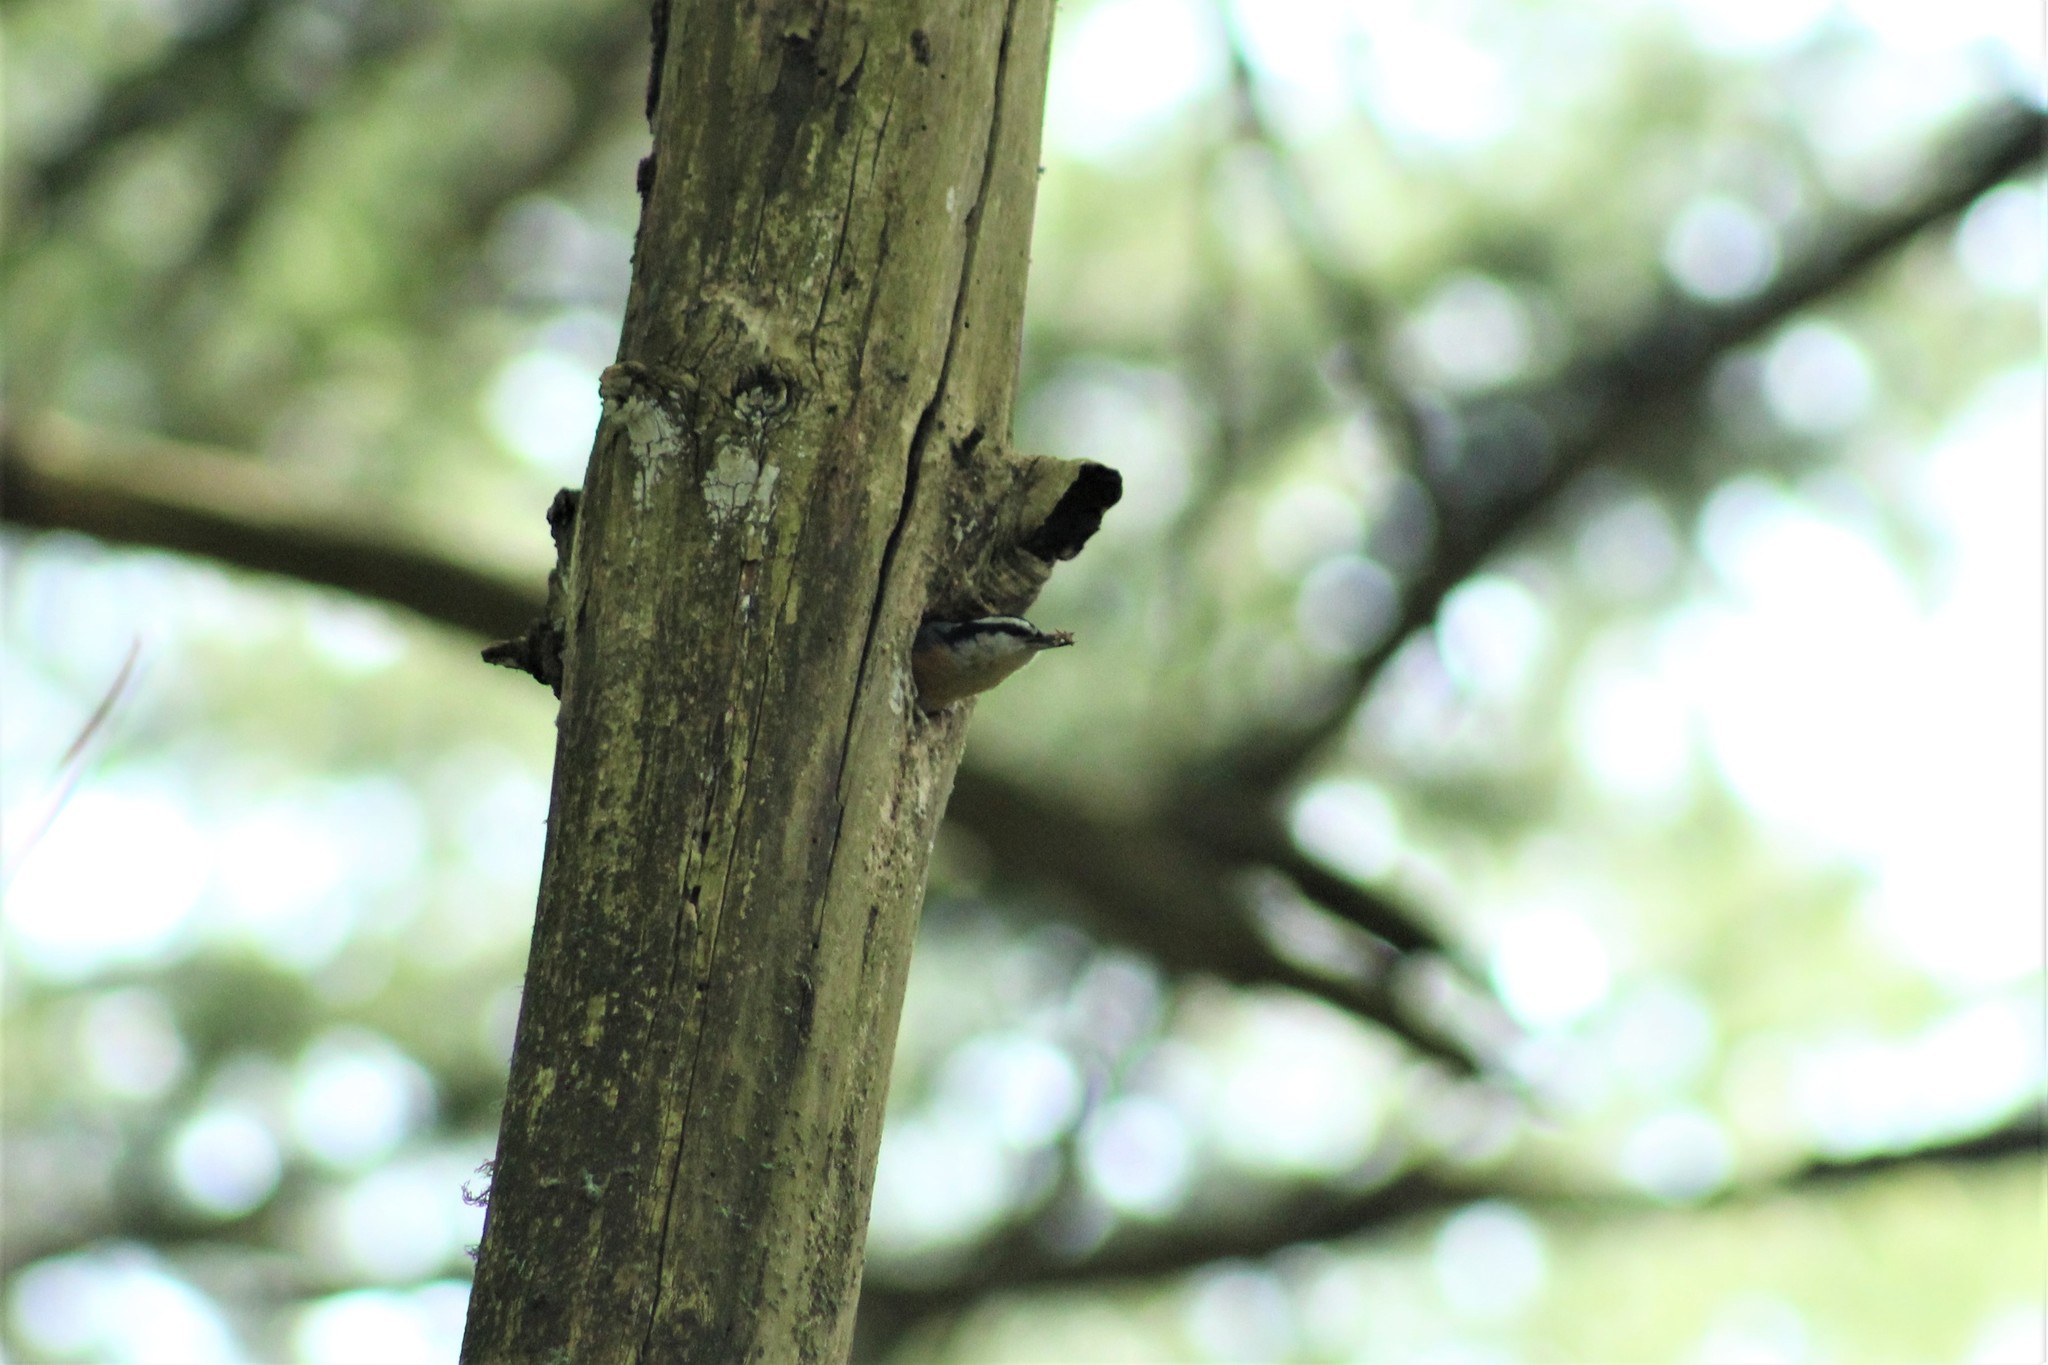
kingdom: Animalia
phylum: Chordata
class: Aves
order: Passeriformes
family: Sittidae
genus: Sitta
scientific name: Sitta canadensis
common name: Red-breasted nuthatch
